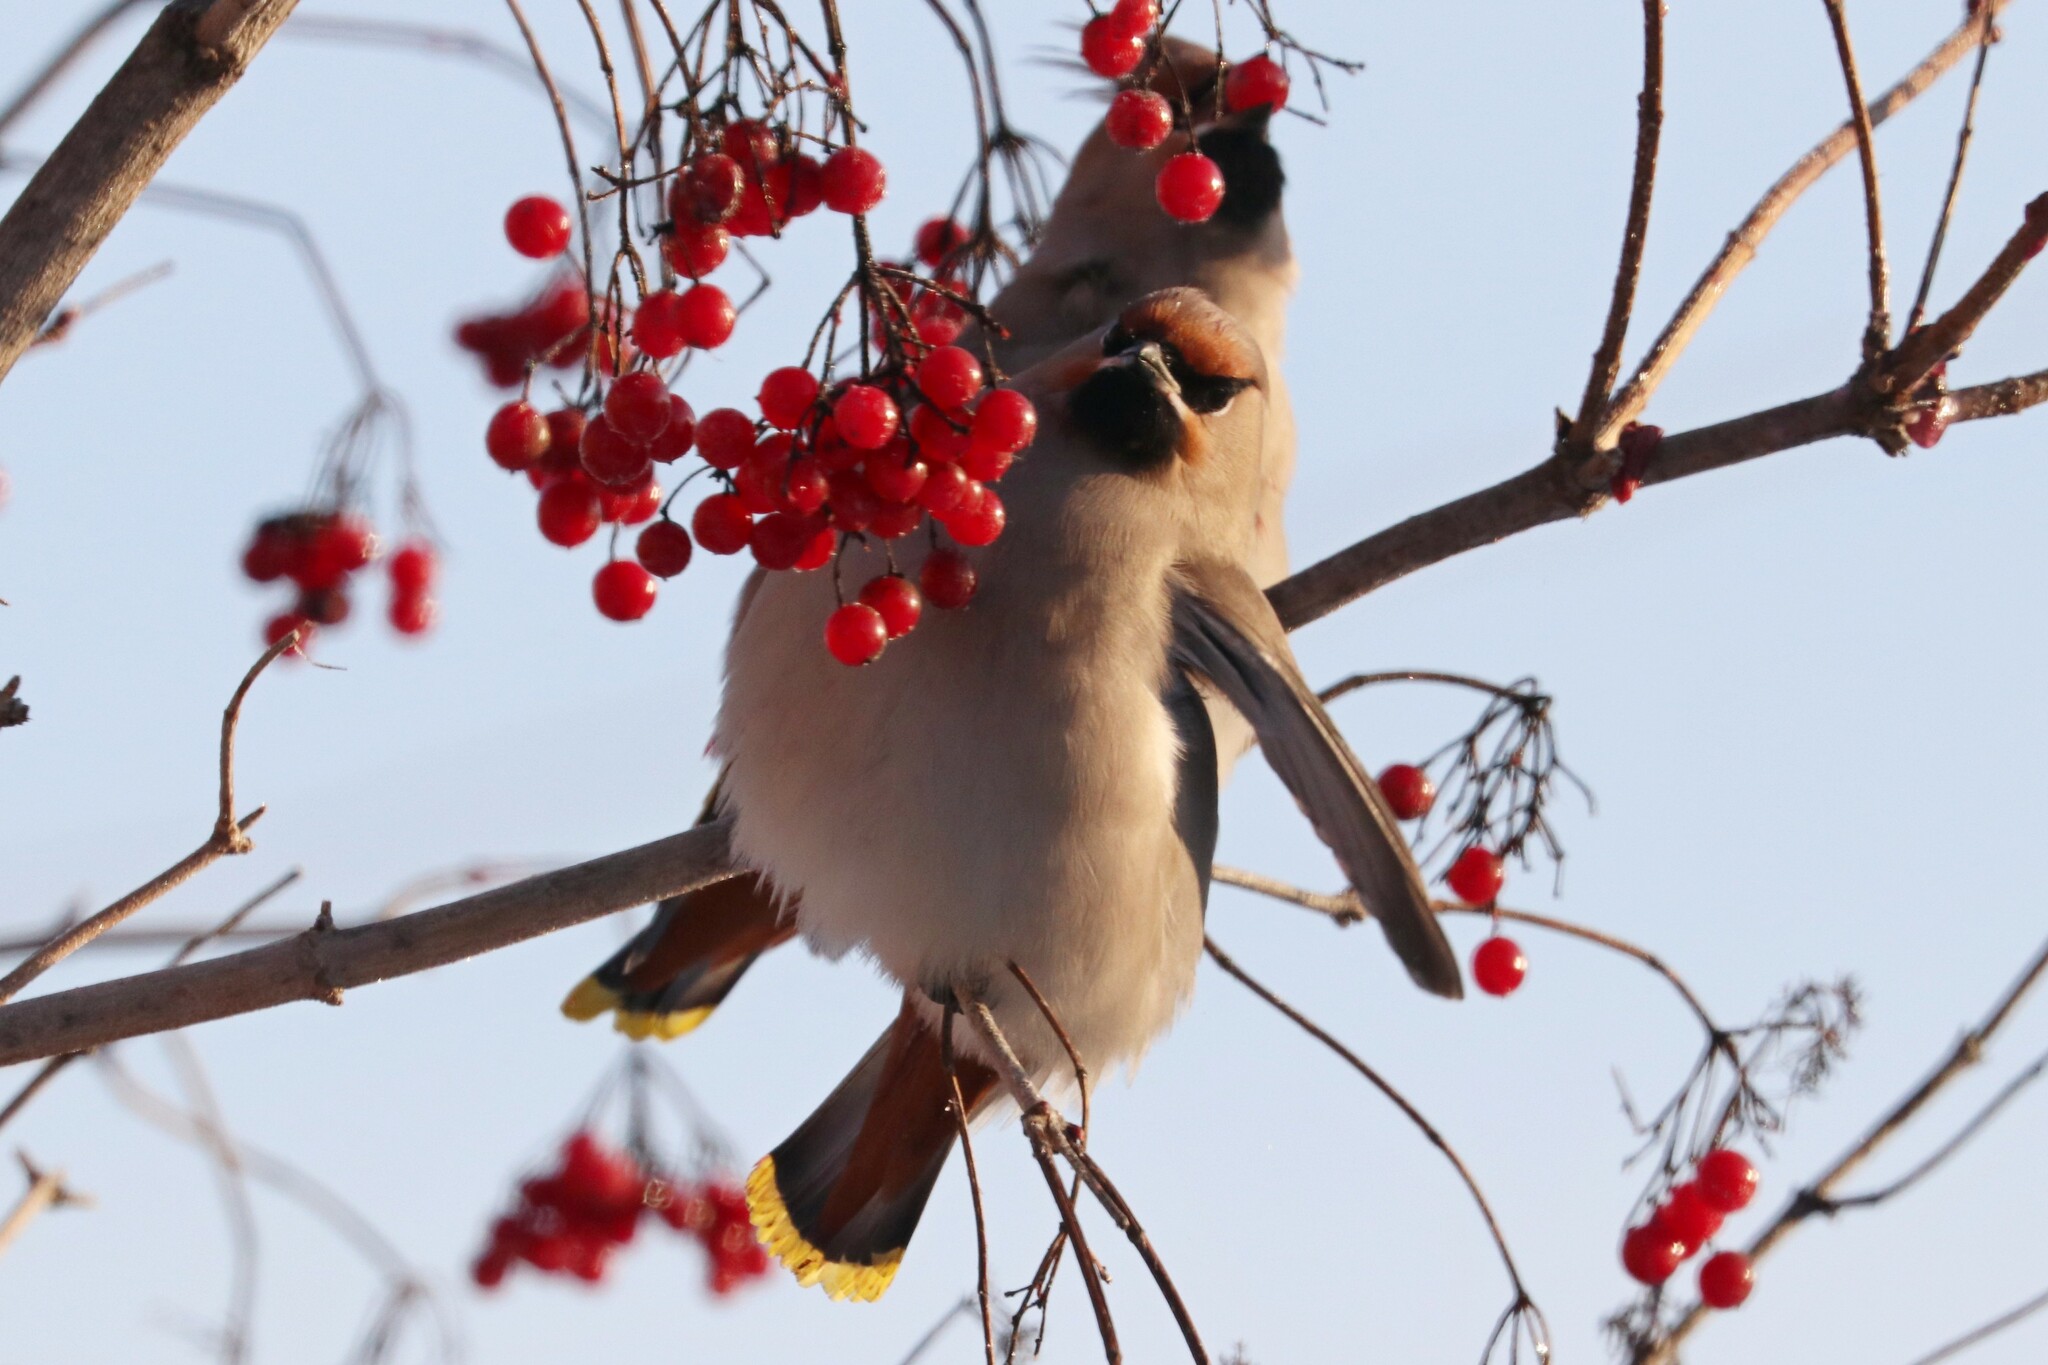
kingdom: Animalia
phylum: Chordata
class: Aves
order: Passeriformes
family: Bombycillidae
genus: Bombycilla
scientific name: Bombycilla garrulus
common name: Bohemian waxwing
